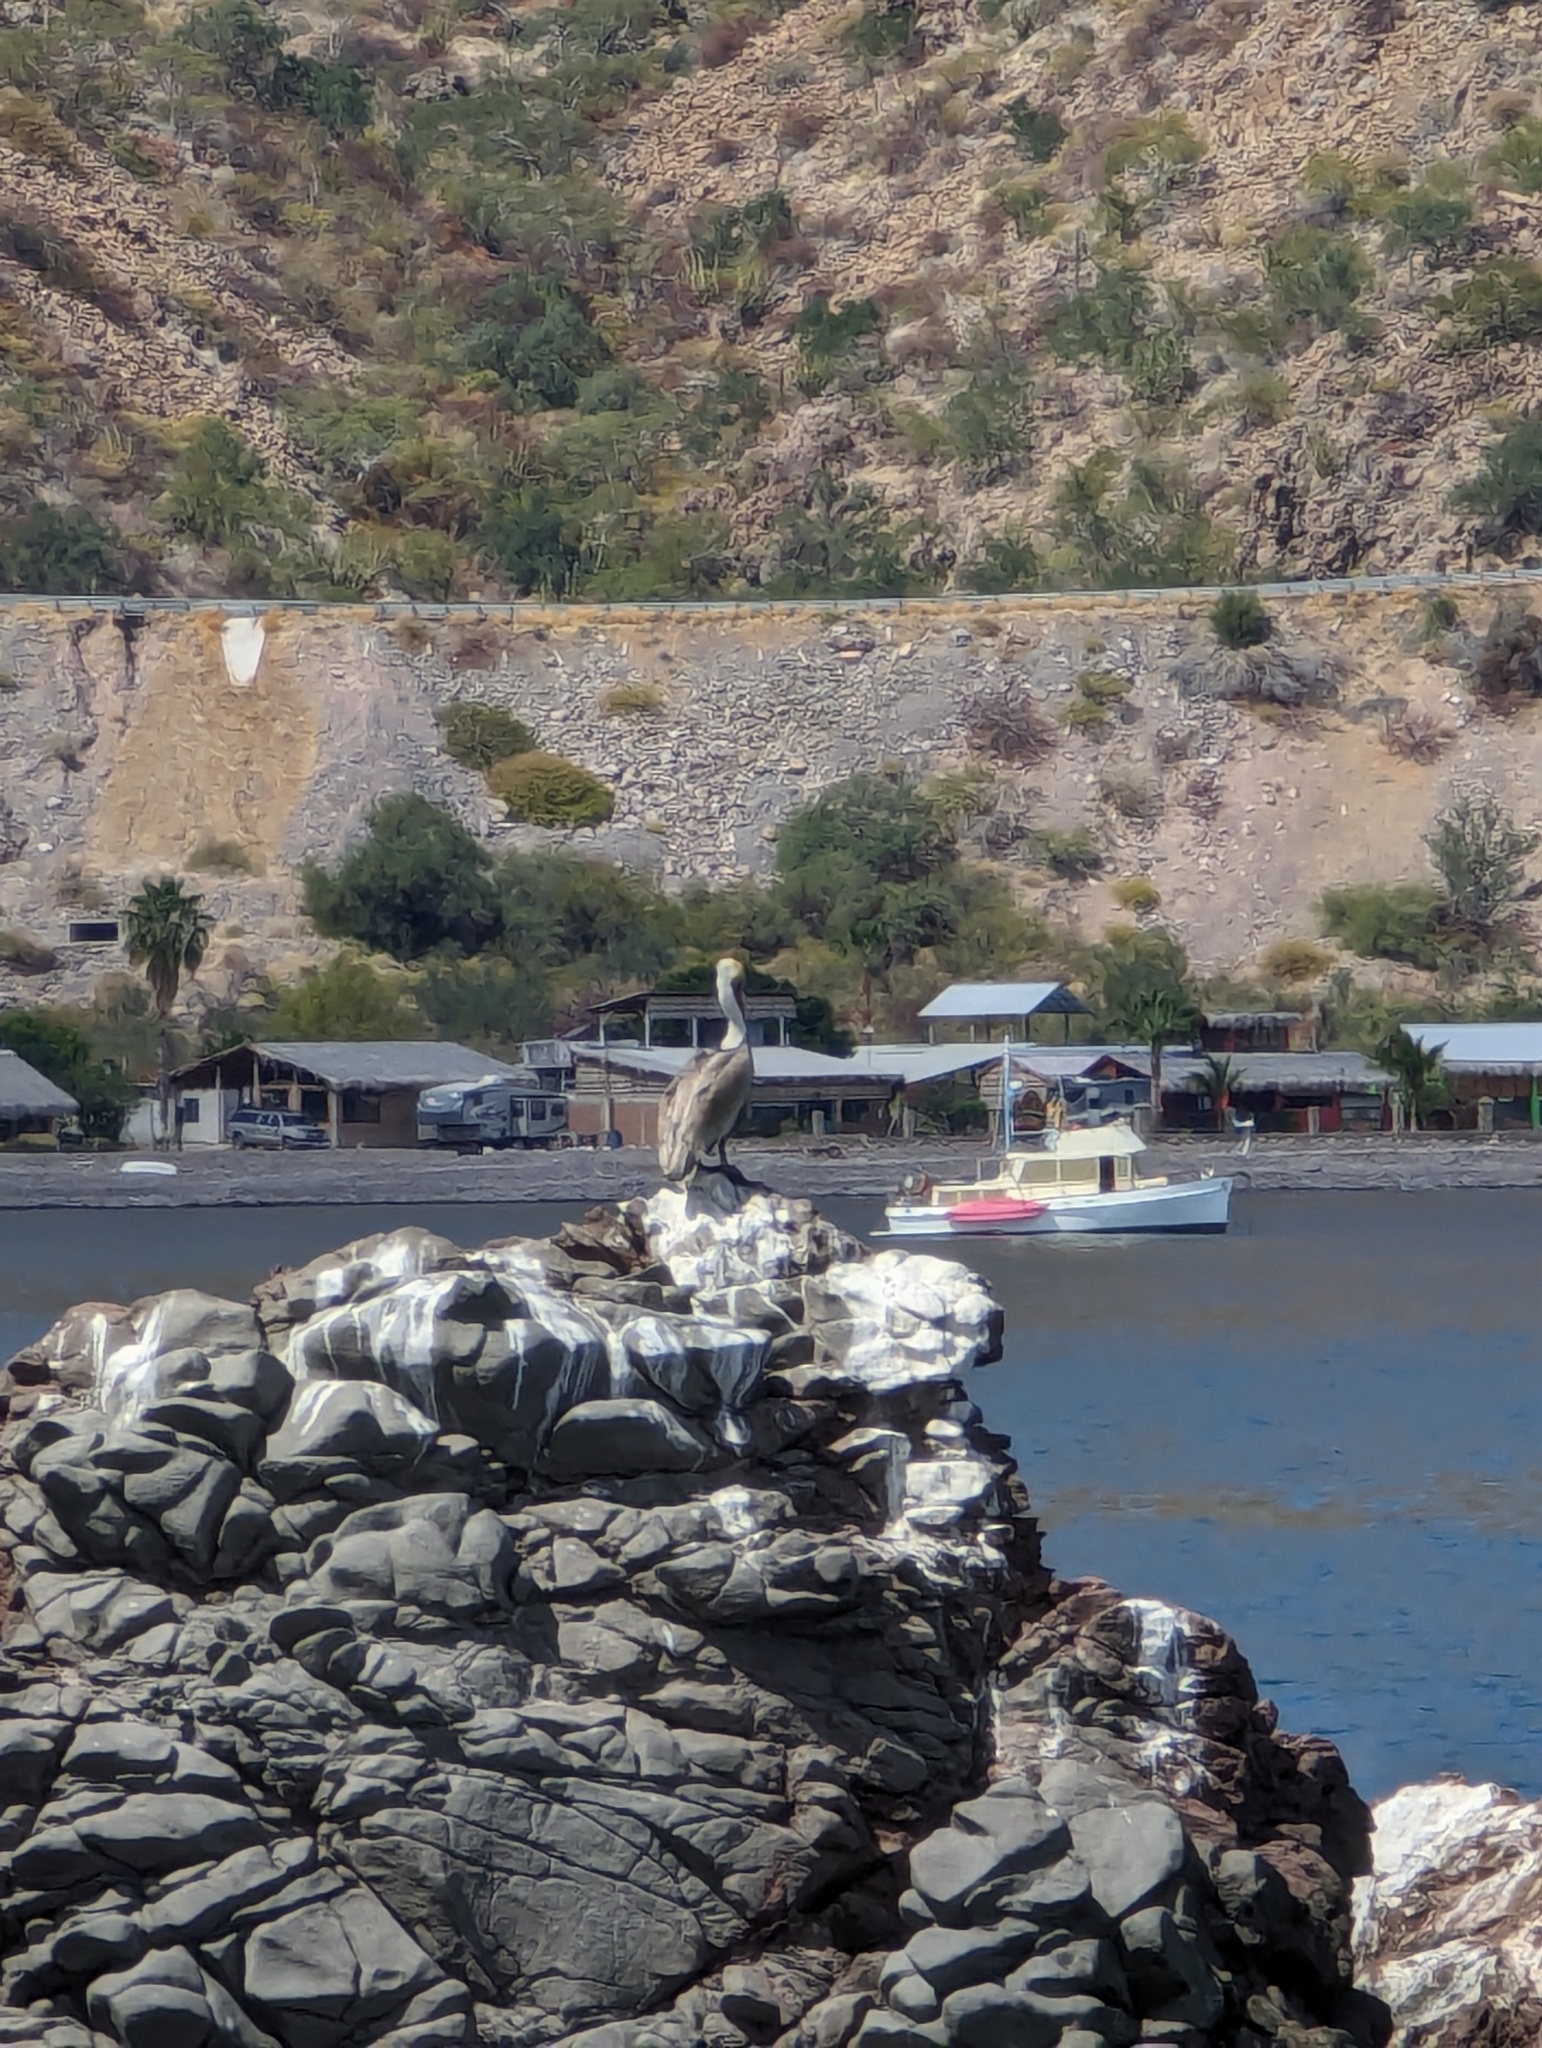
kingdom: Animalia
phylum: Chordata
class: Aves
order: Pelecaniformes
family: Pelecanidae
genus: Pelecanus
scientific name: Pelecanus occidentalis
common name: Brown pelican
